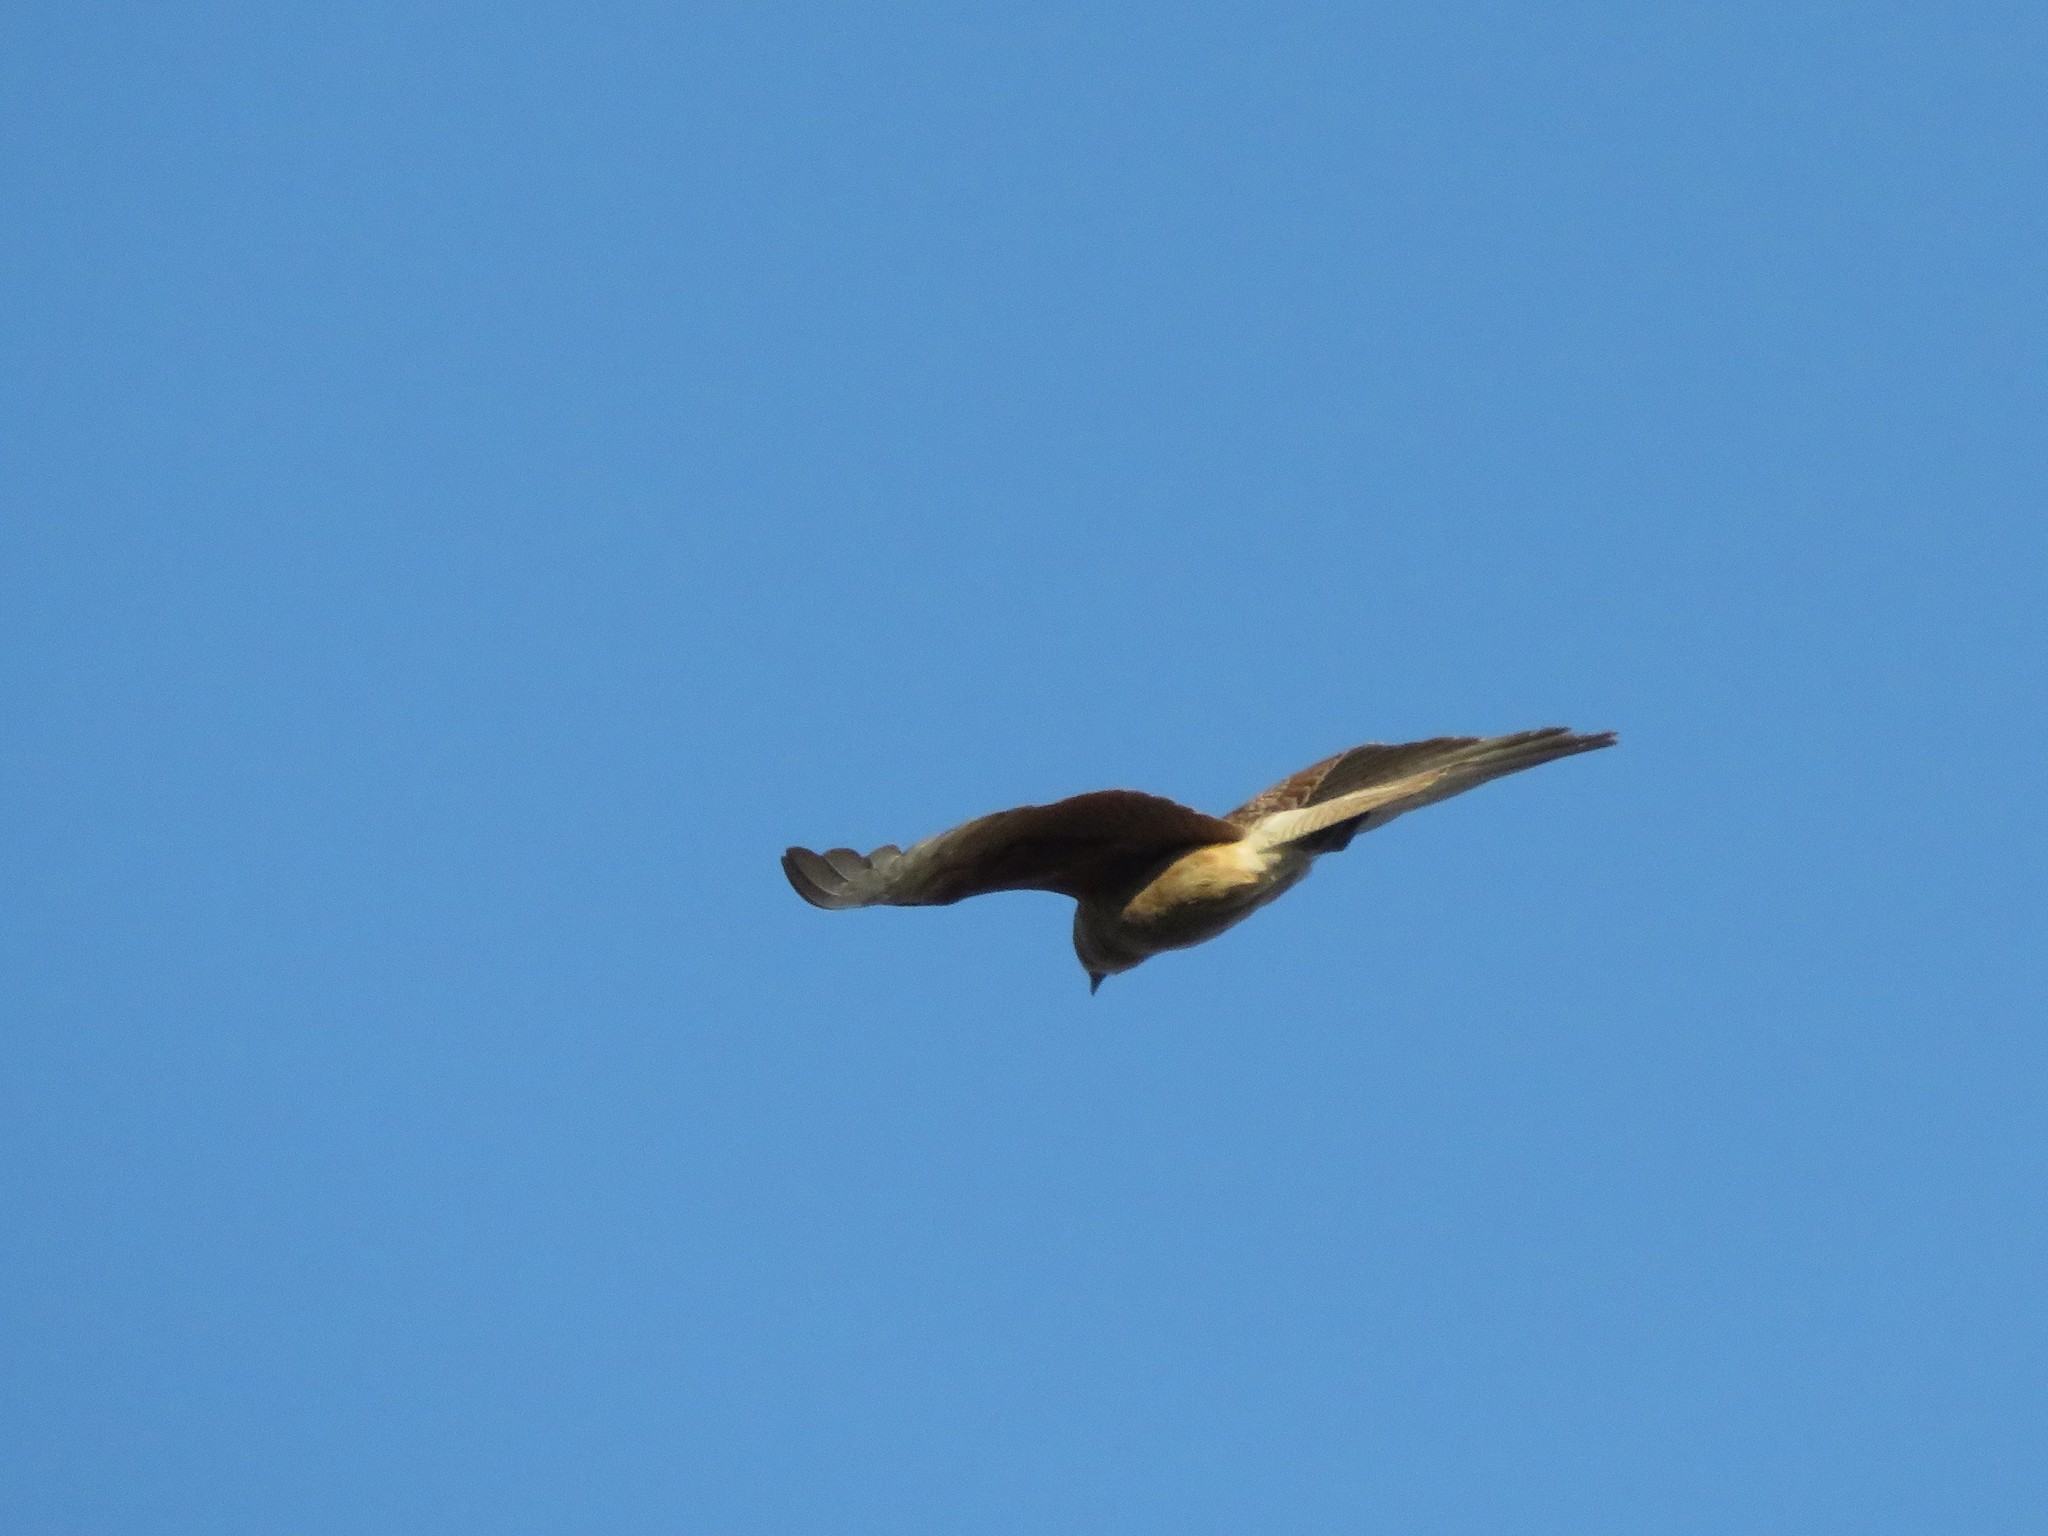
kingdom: Animalia
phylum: Chordata
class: Aves
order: Falconiformes
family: Falconidae
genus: Daptrius
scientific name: Daptrius
